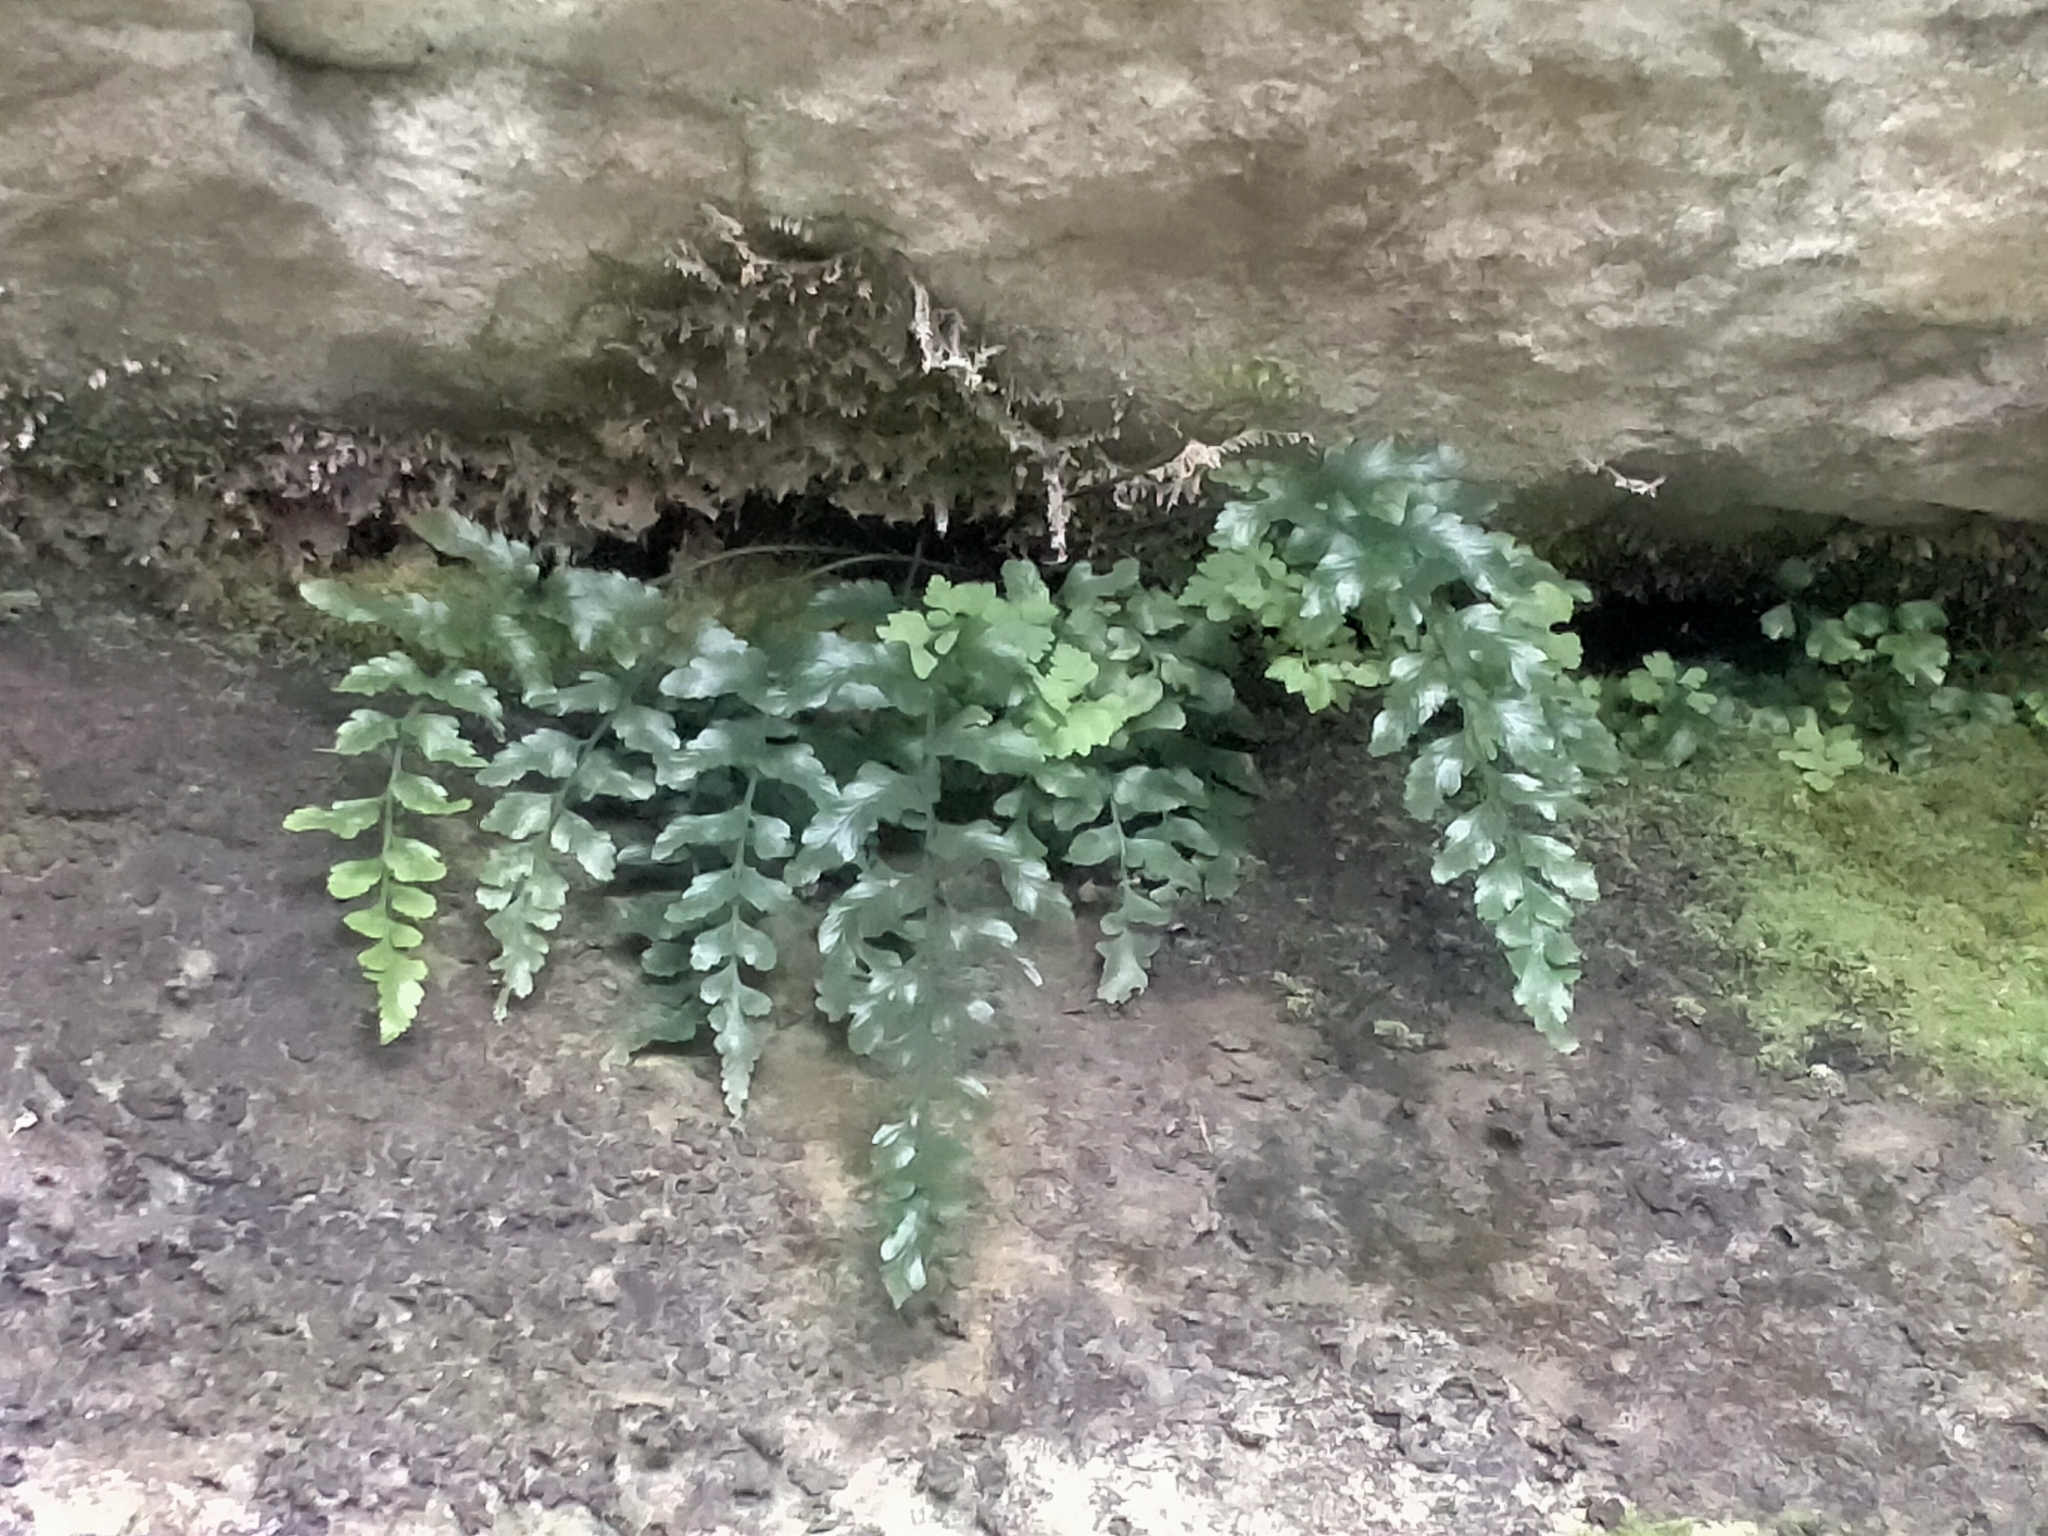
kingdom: Plantae
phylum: Tracheophyta
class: Polypodiopsida
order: Polypodiales
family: Aspleniaceae
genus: Asplenium
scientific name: Asplenium lyallii
